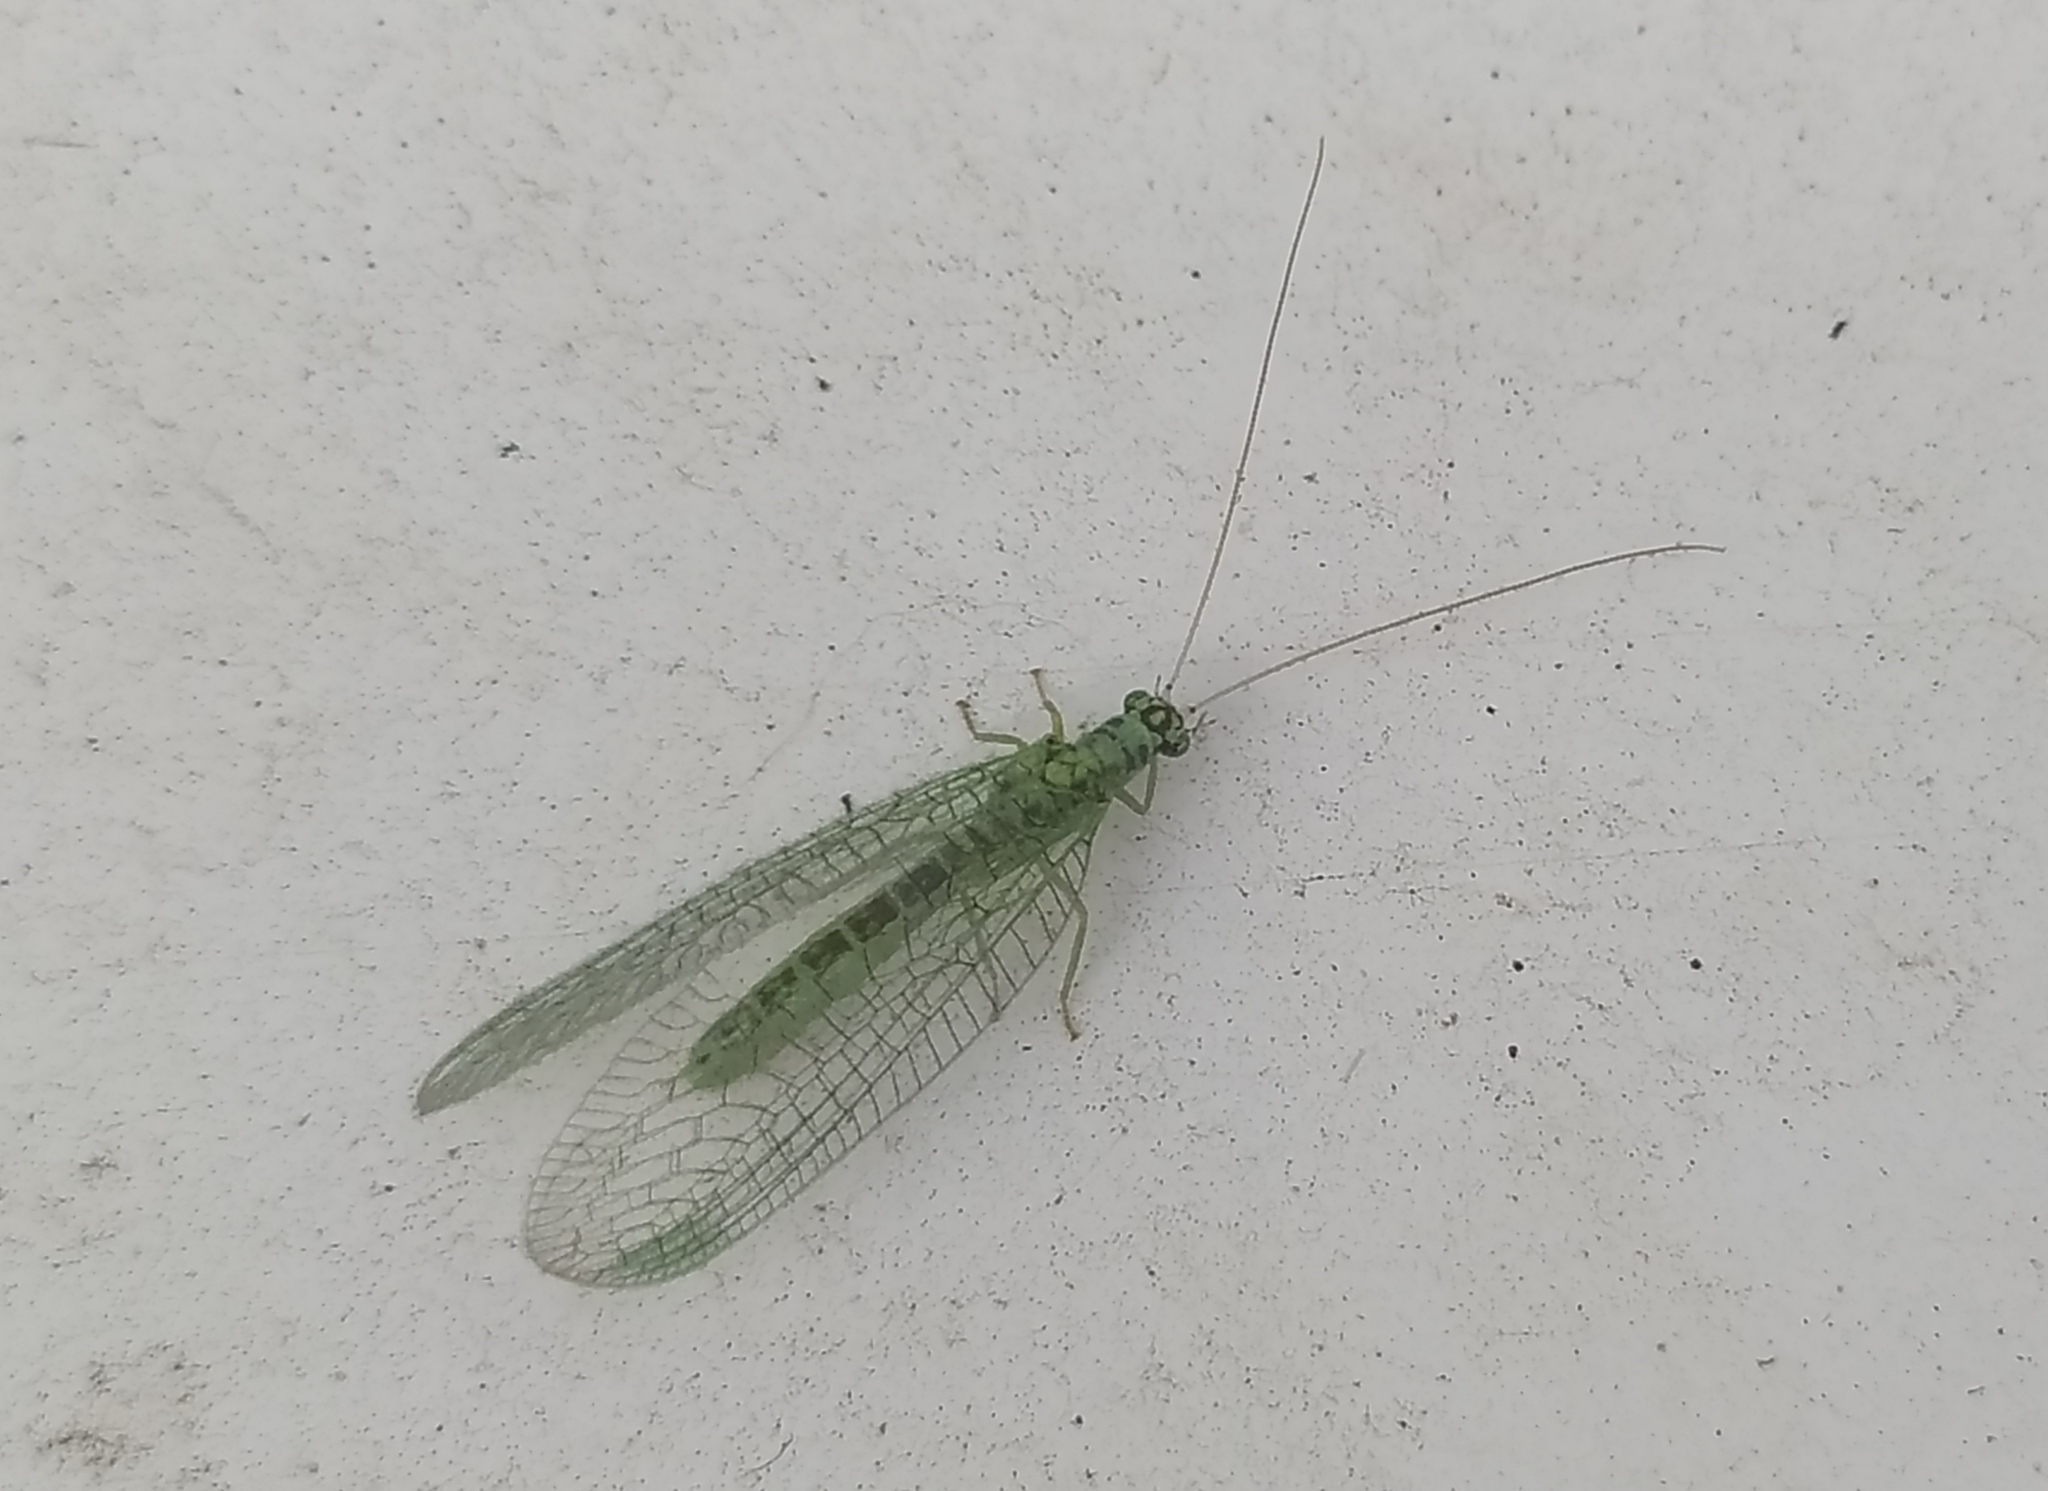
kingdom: Animalia
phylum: Arthropoda
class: Insecta
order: Neuroptera
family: Chrysopidae
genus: Chrysopa
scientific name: Chrysopa perla
